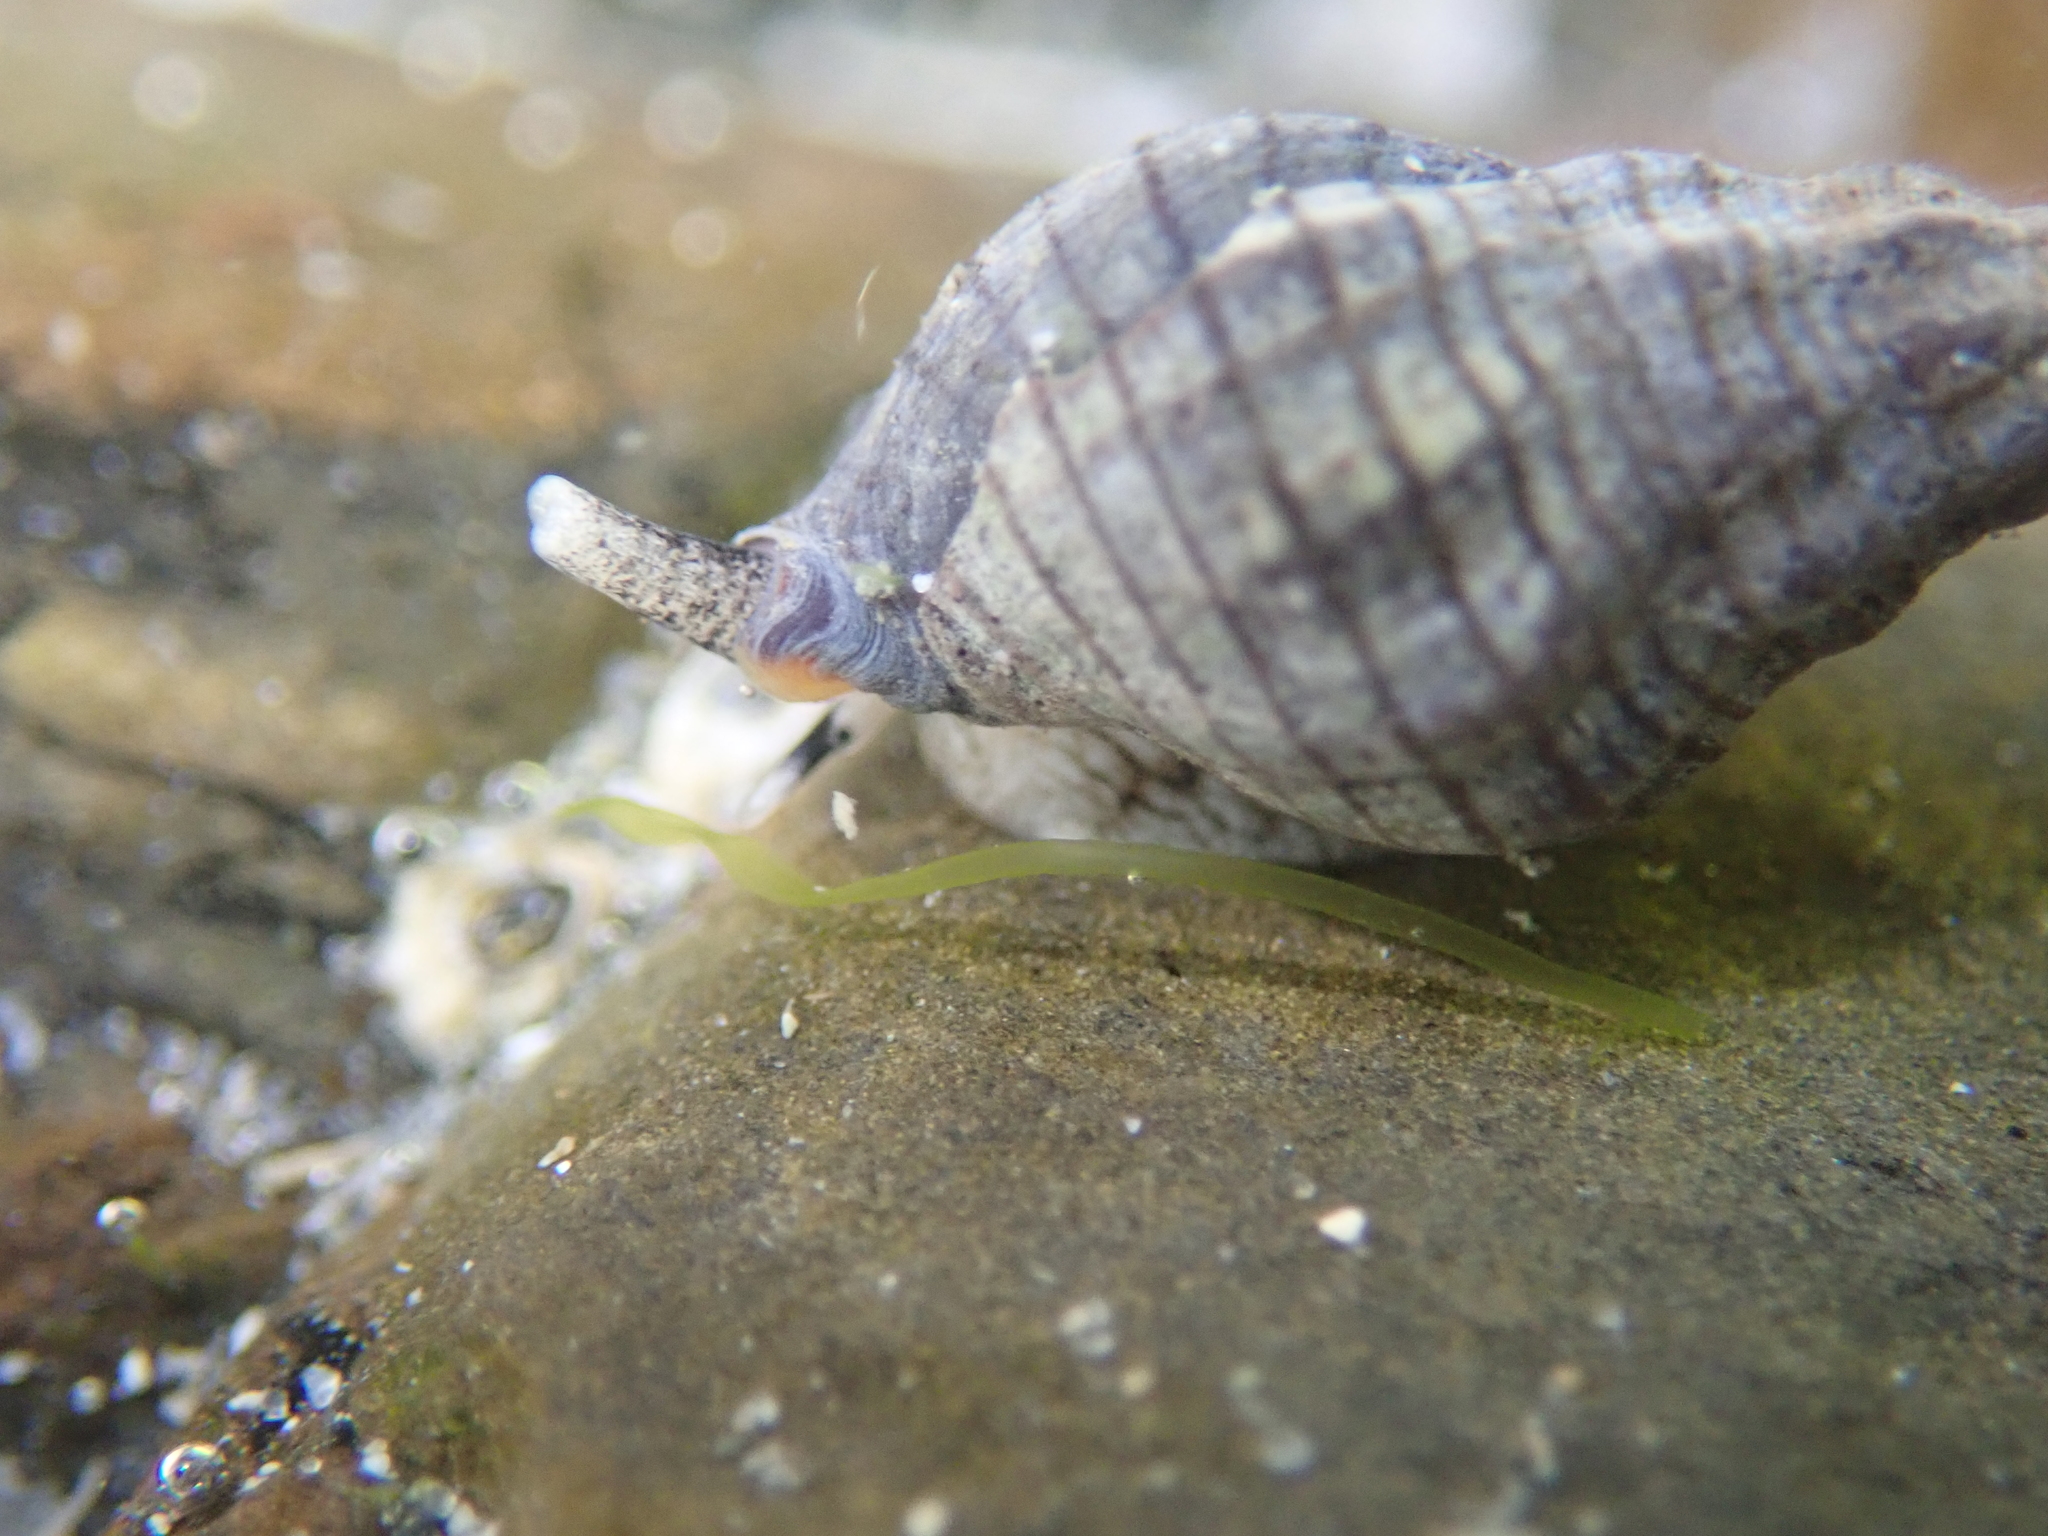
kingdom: Animalia
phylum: Mollusca
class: Gastropoda
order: Neogastropoda
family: Cominellidae
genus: Cominella
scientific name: Cominella virgata
